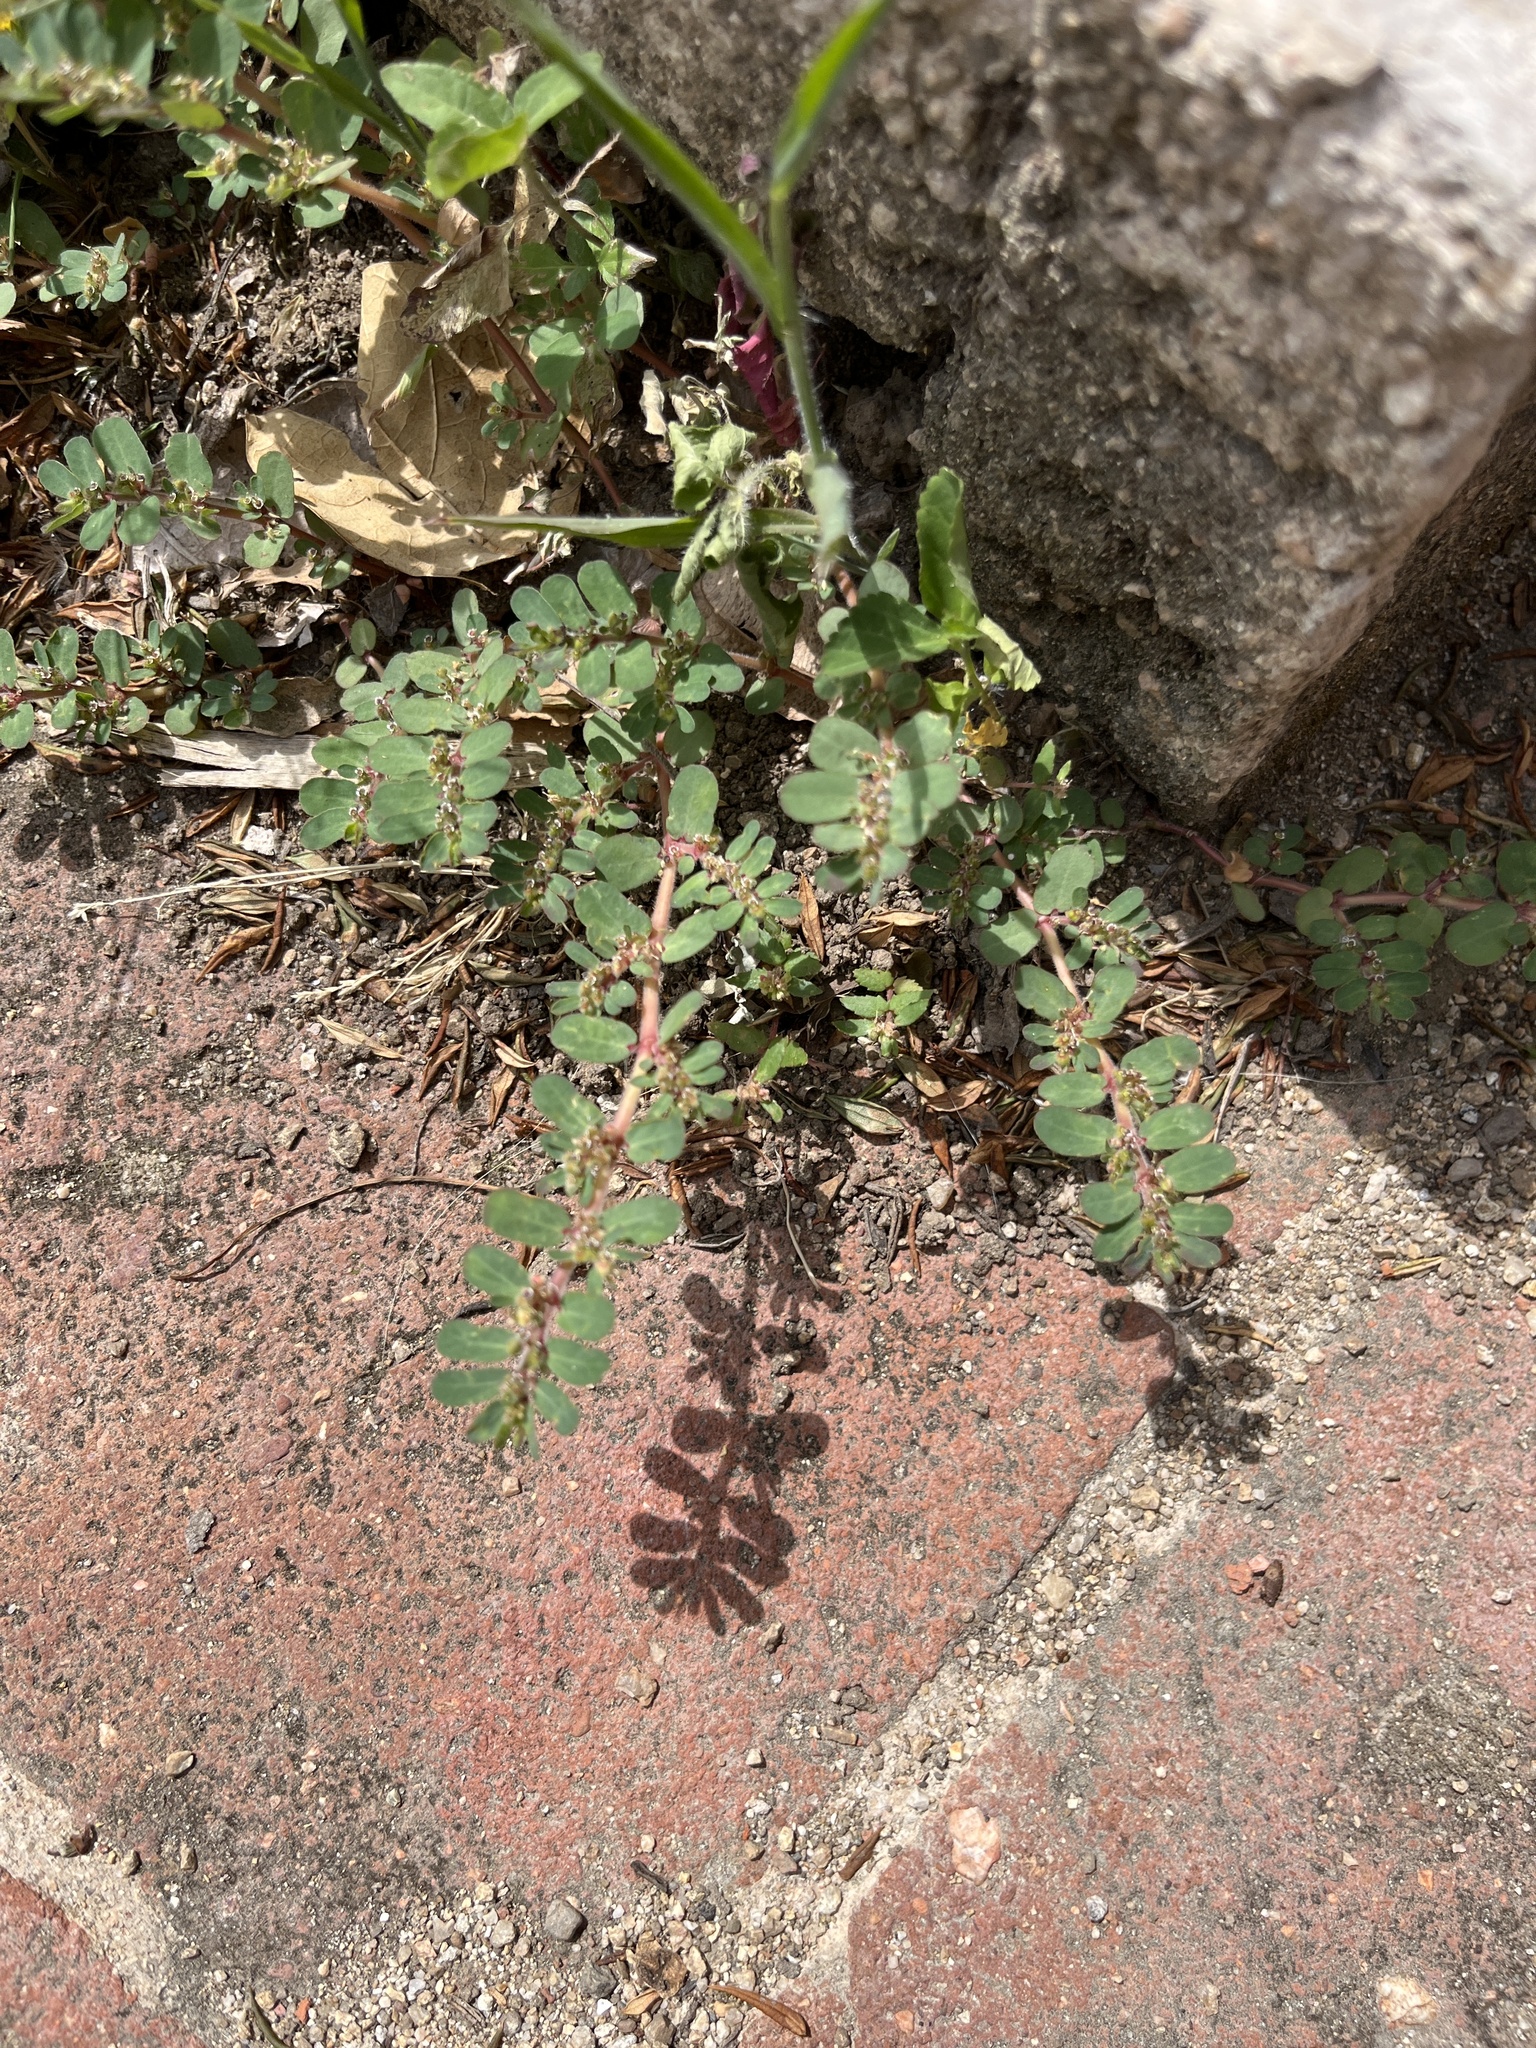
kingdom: Plantae
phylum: Tracheophyta
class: Magnoliopsida
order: Malpighiales
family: Euphorbiaceae
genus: Euphorbia
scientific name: Euphorbia prostrata
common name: Prostrate sandmat
